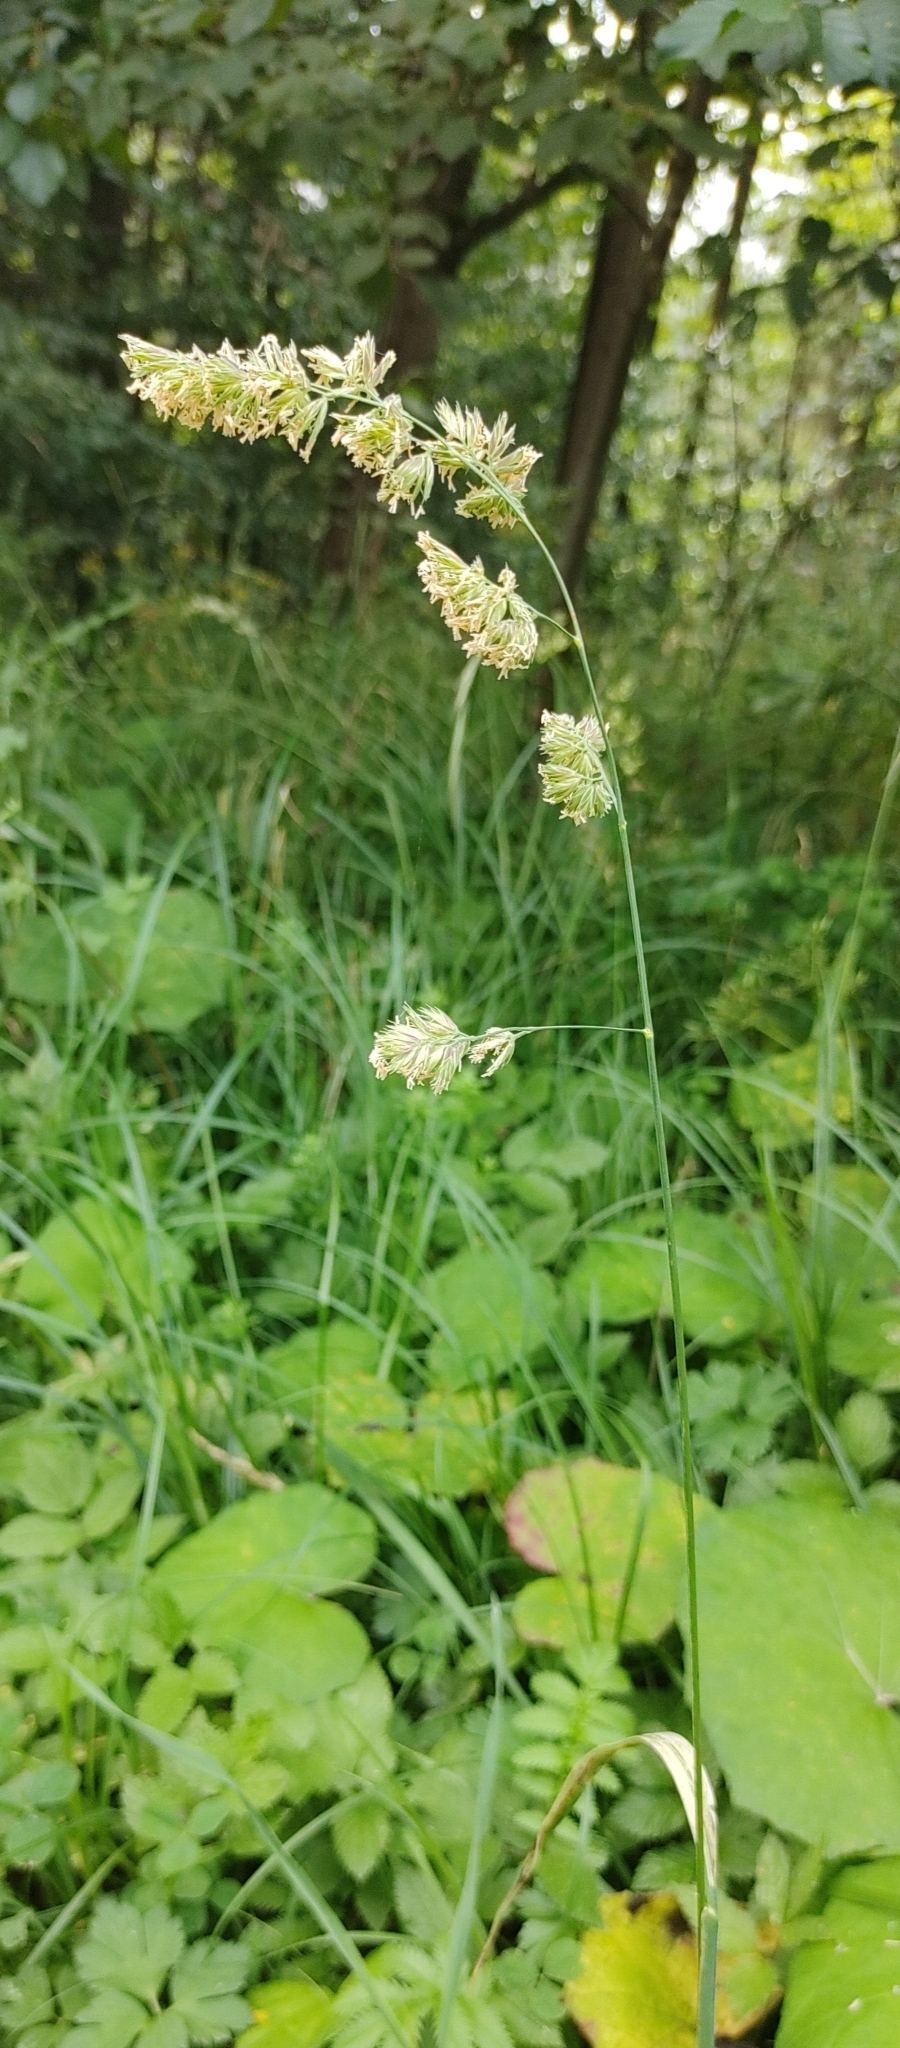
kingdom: Plantae
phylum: Tracheophyta
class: Liliopsida
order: Poales
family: Poaceae
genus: Dactylis
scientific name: Dactylis glomerata
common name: Orchardgrass
